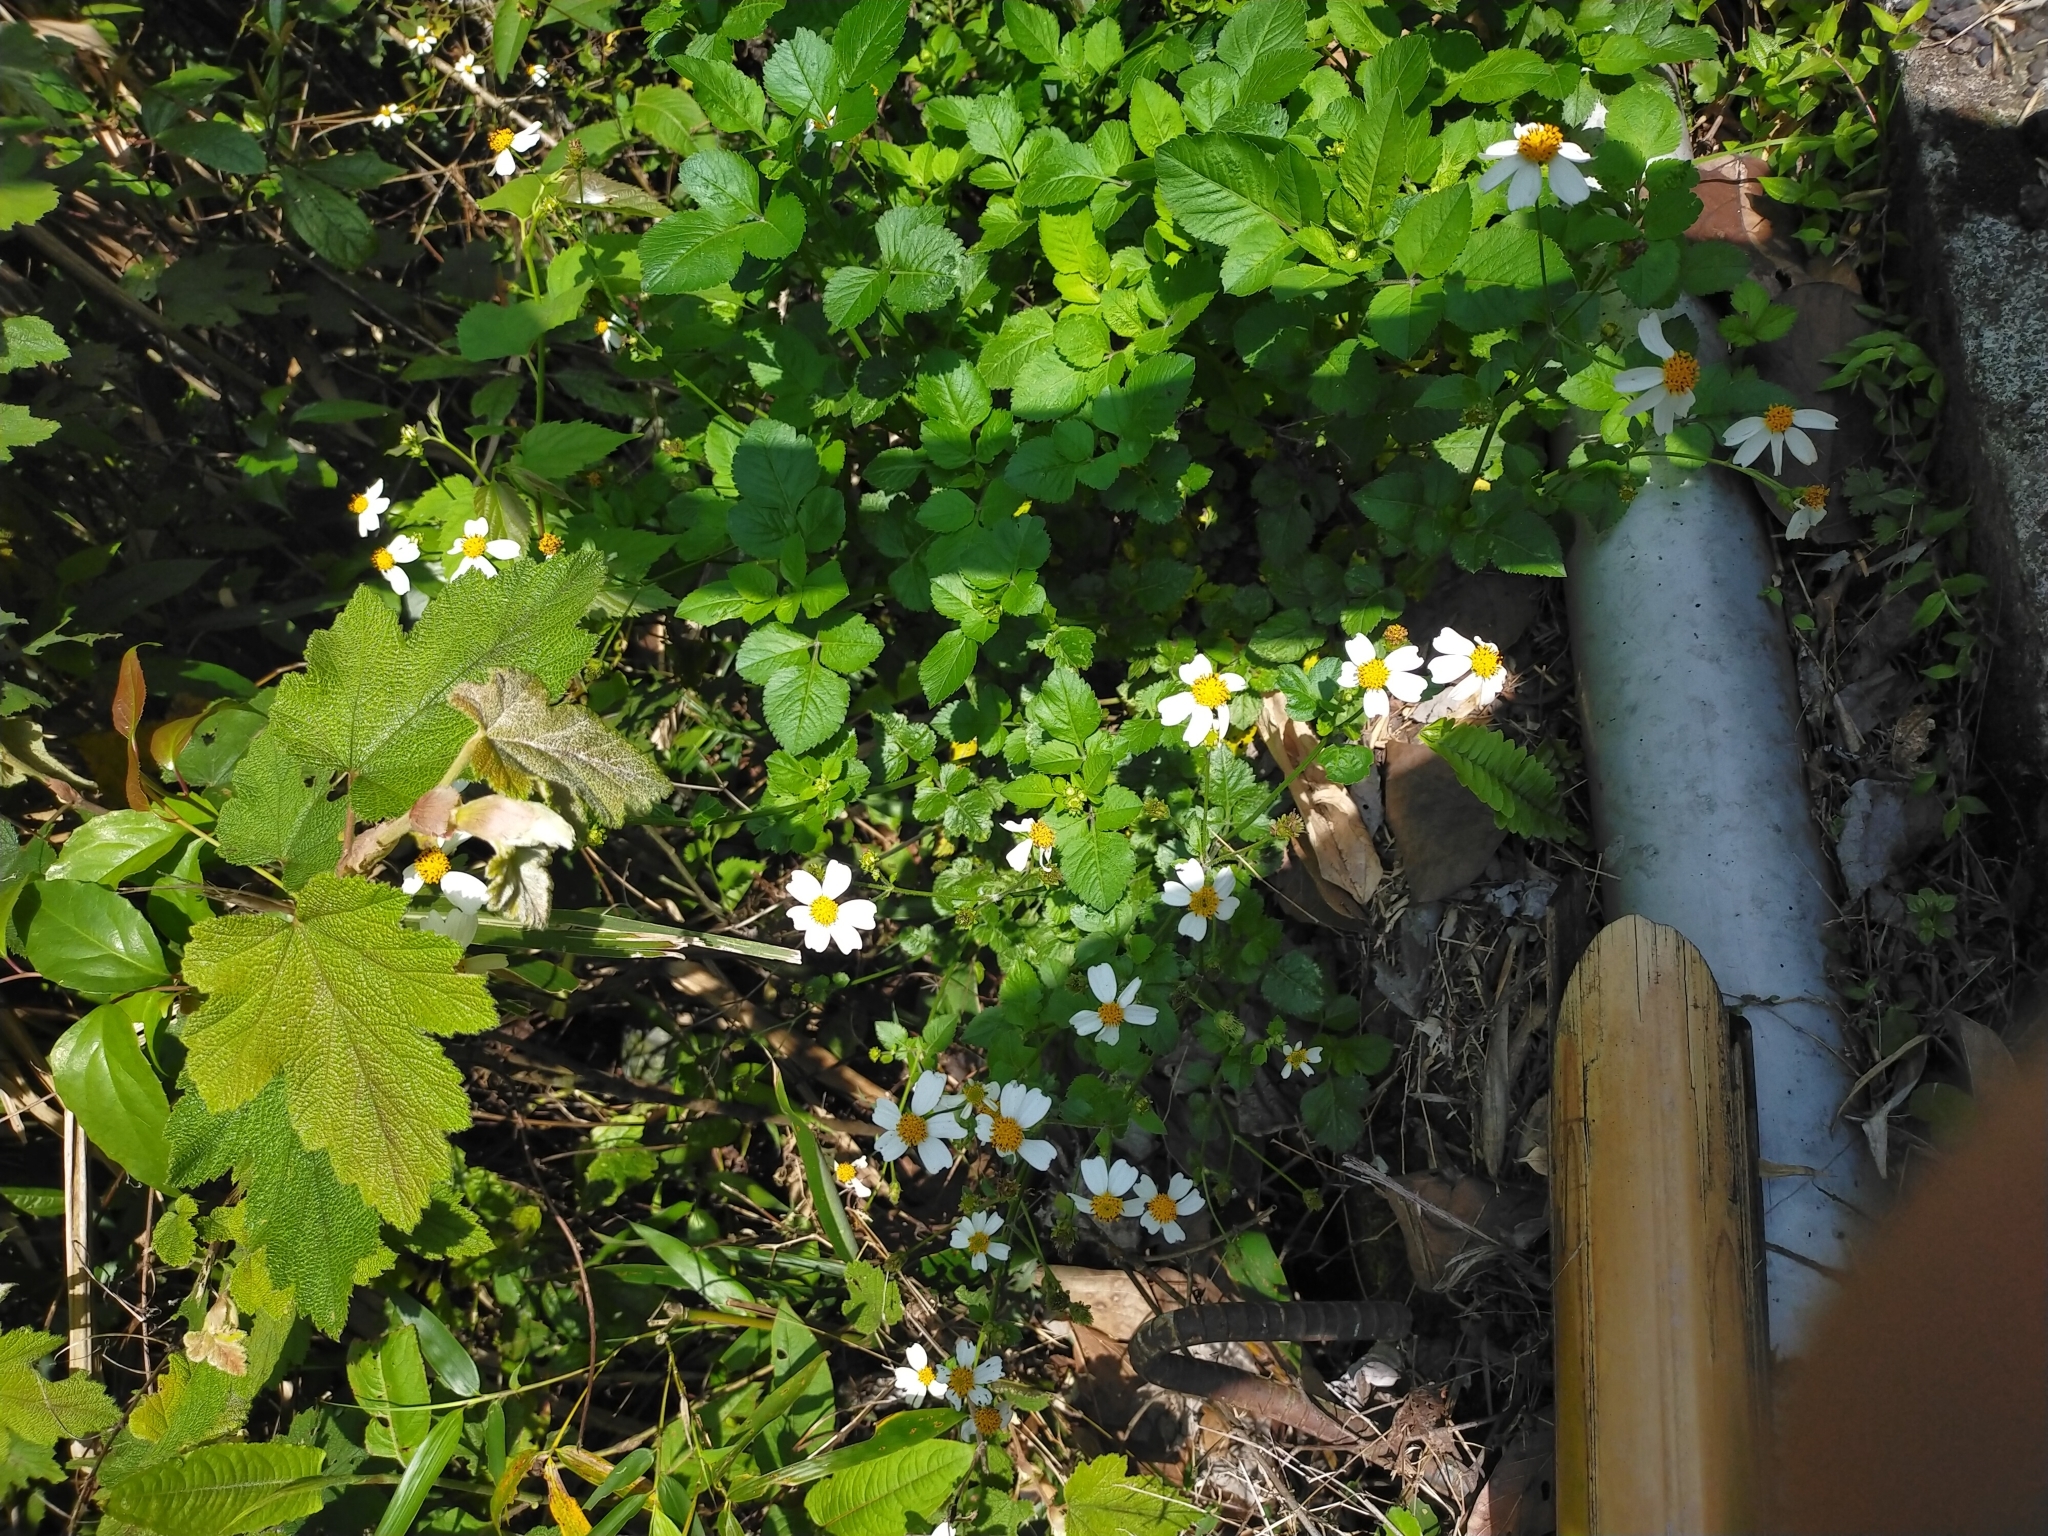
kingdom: Plantae
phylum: Tracheophyta
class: Magnoliopsida
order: Asterales
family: Asteraceae
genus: Bidens
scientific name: Bidens alba
